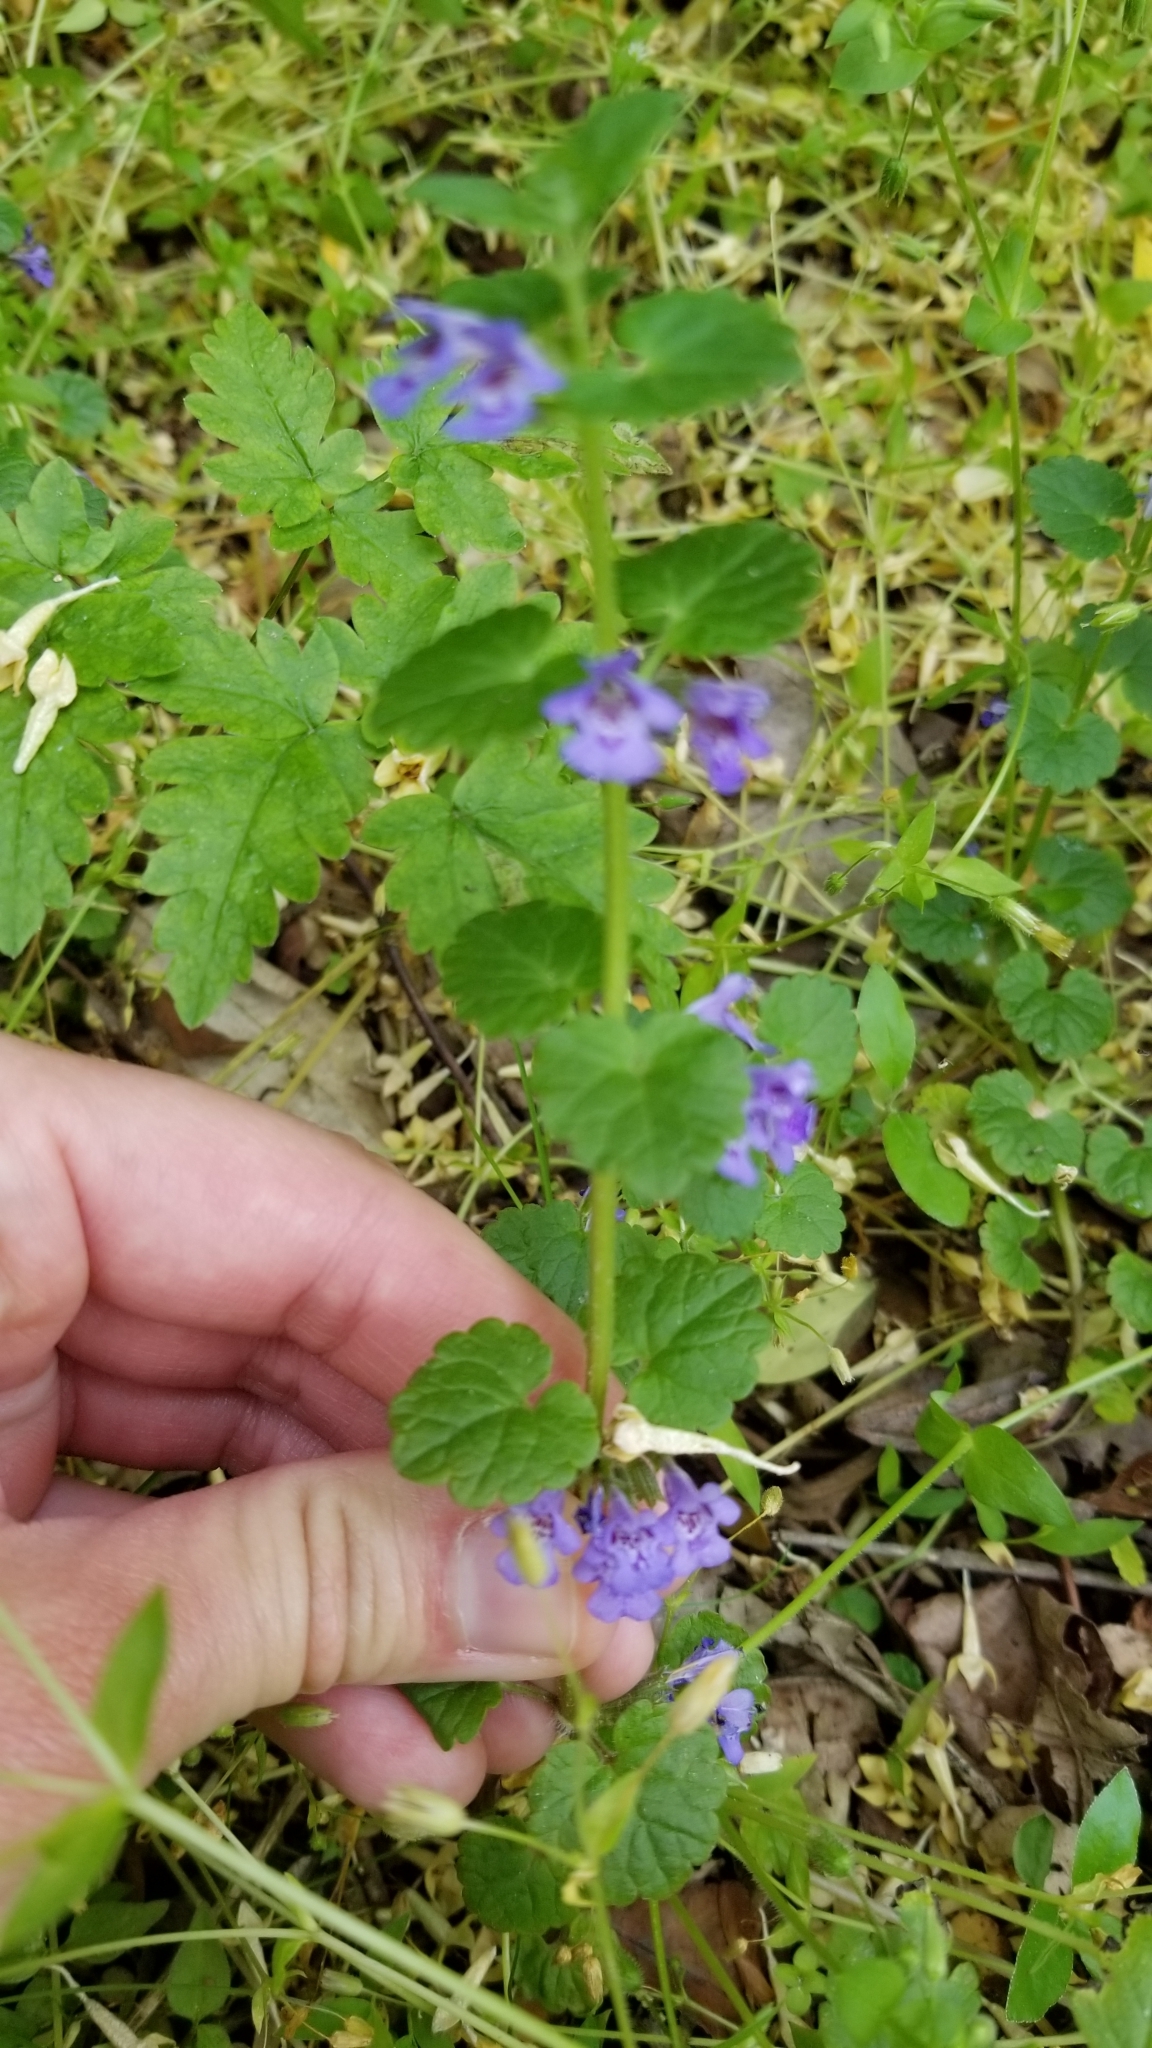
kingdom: Plantae
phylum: Tracheophyta
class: Magnoliopsida
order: Lamiales
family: Lamiaceae
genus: Glechoma
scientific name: Glechoma hederacea
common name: Ground ivy
